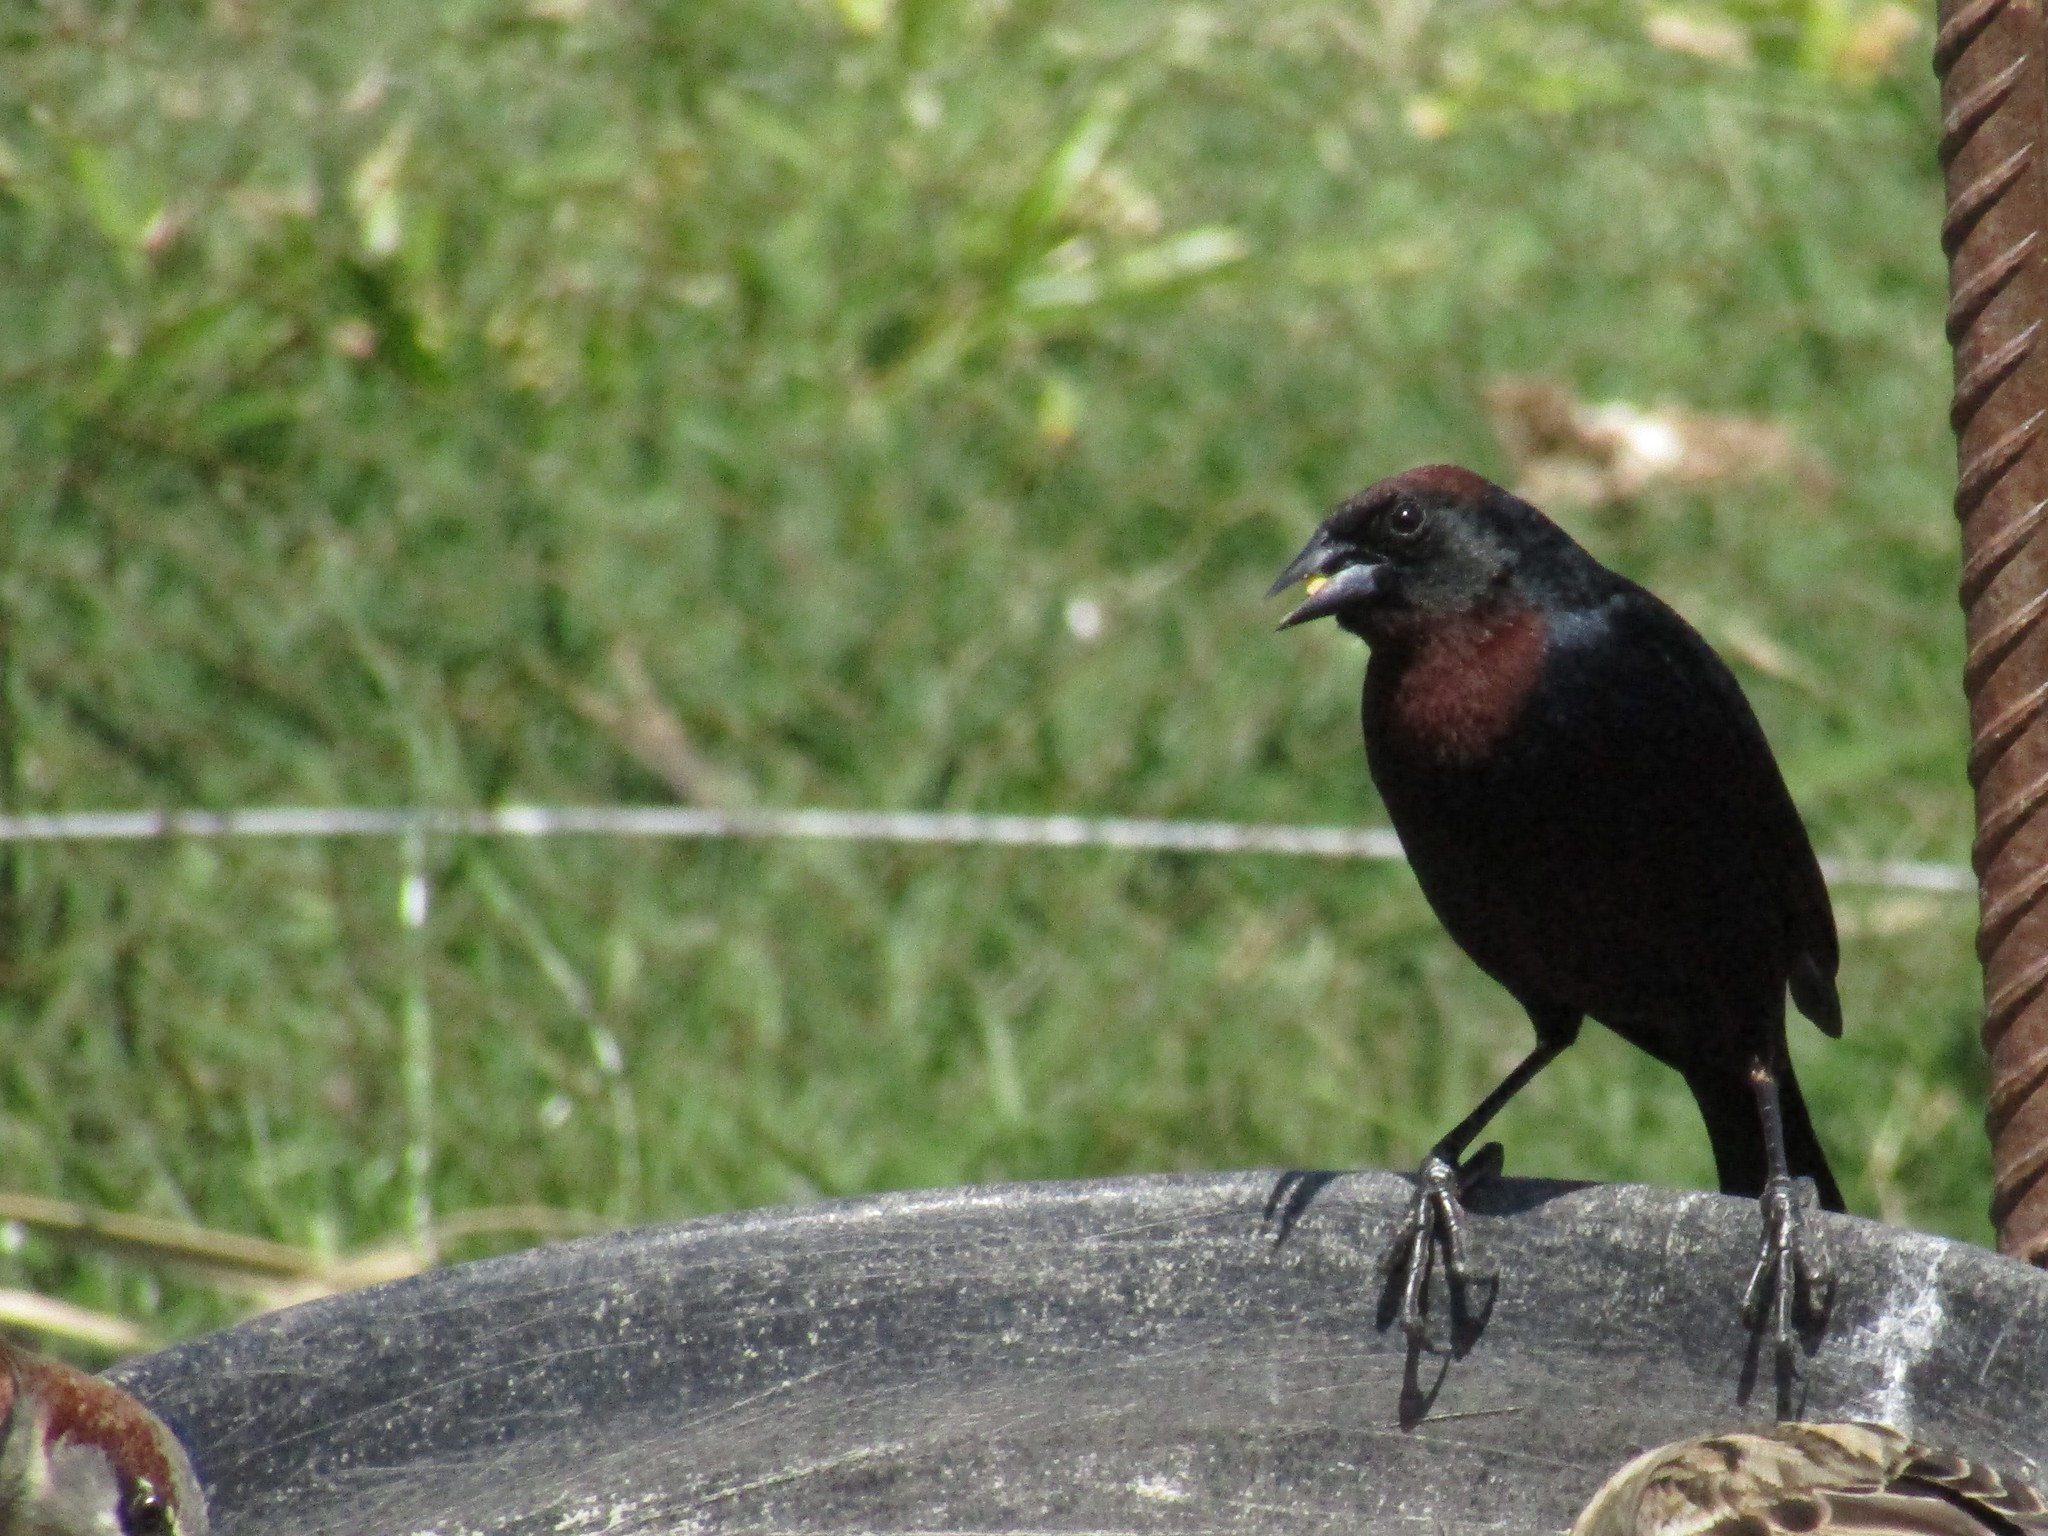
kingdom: Animalia
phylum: Chordata
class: Aves
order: Passeriformes
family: Icteridae
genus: Chrysomus
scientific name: Chrysomus ruficapillus
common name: Chestnut-capped blackbird
